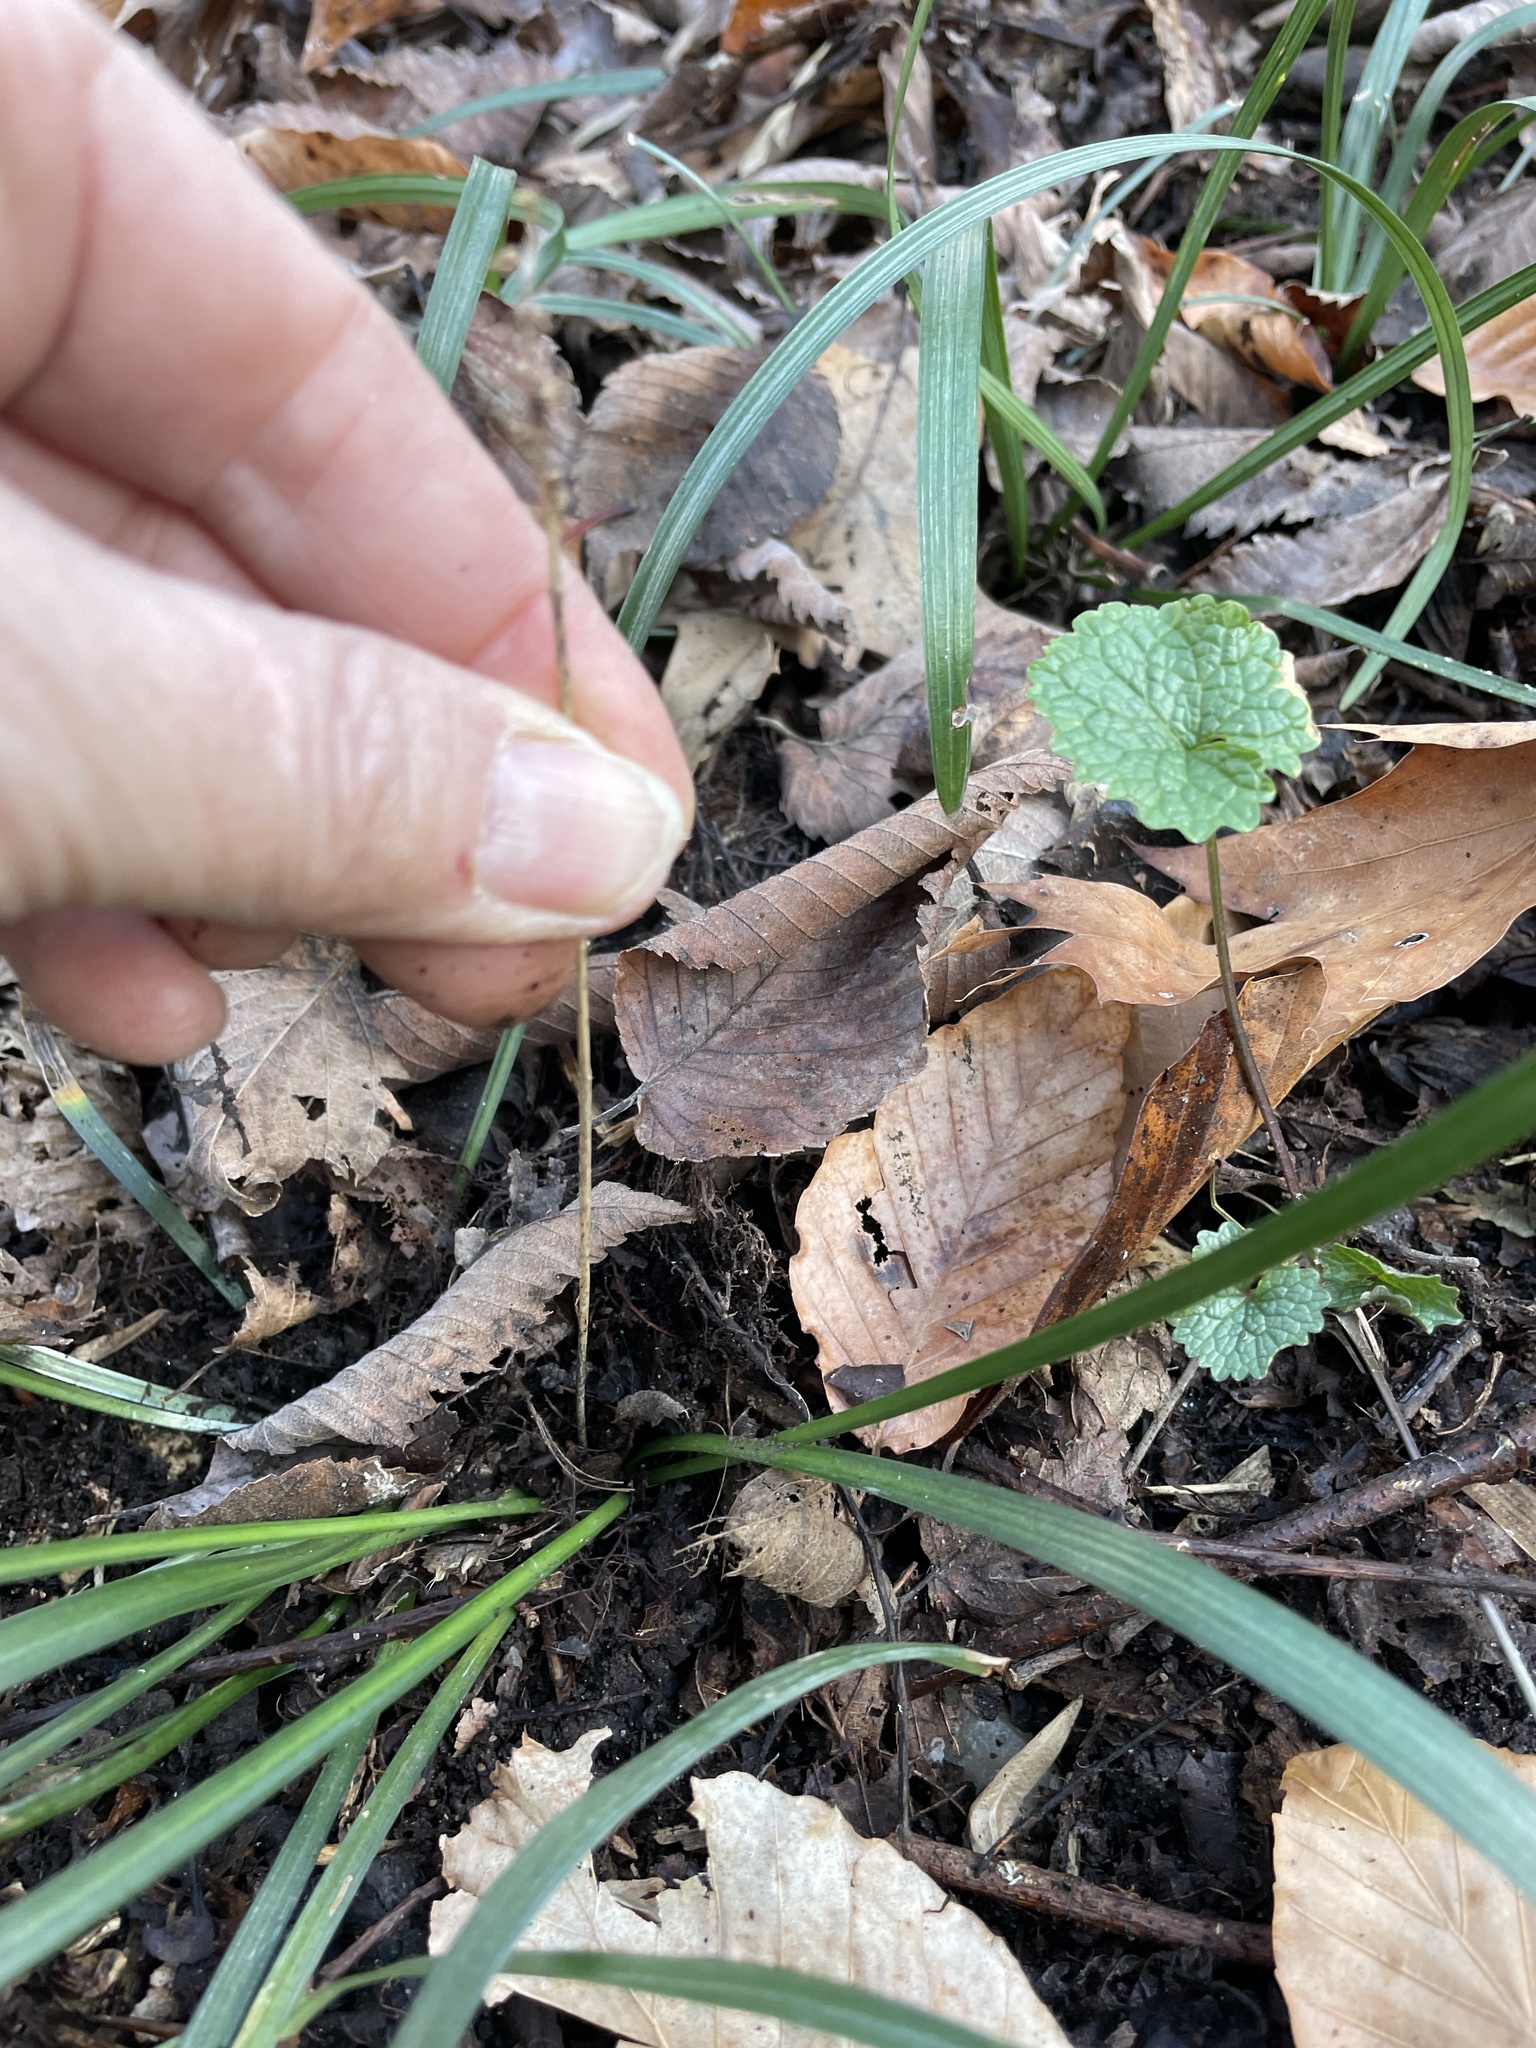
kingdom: Plantae
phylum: Tracheophyta
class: Liliopsida
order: Asparagales
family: Asparagaceae
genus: Liriope
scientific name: Liriope spicata
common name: Creeping liriope
